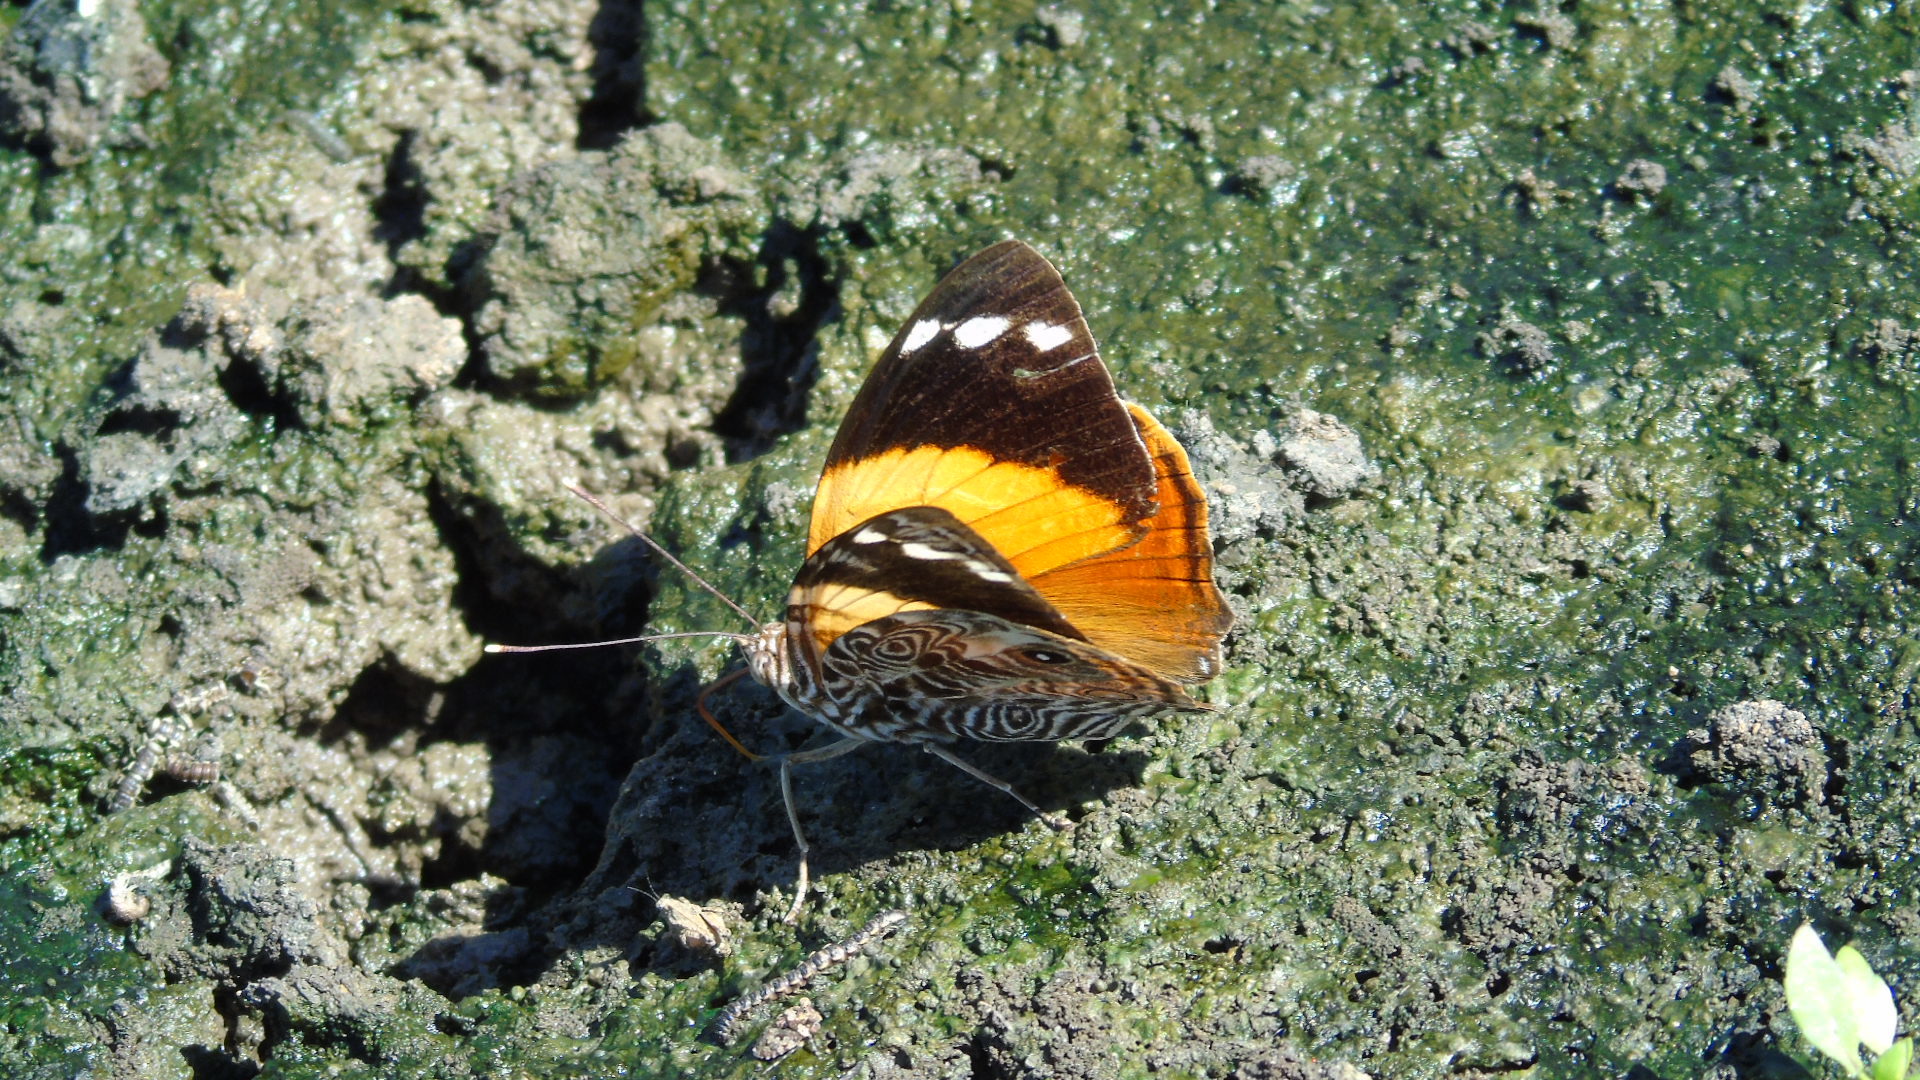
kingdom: Animalia
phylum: Arthropoda
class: Insecta
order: Lepidoptera
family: Nymphalidae
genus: Smyrna
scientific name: Smyrna blomfildia
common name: Blomfild's beauty
